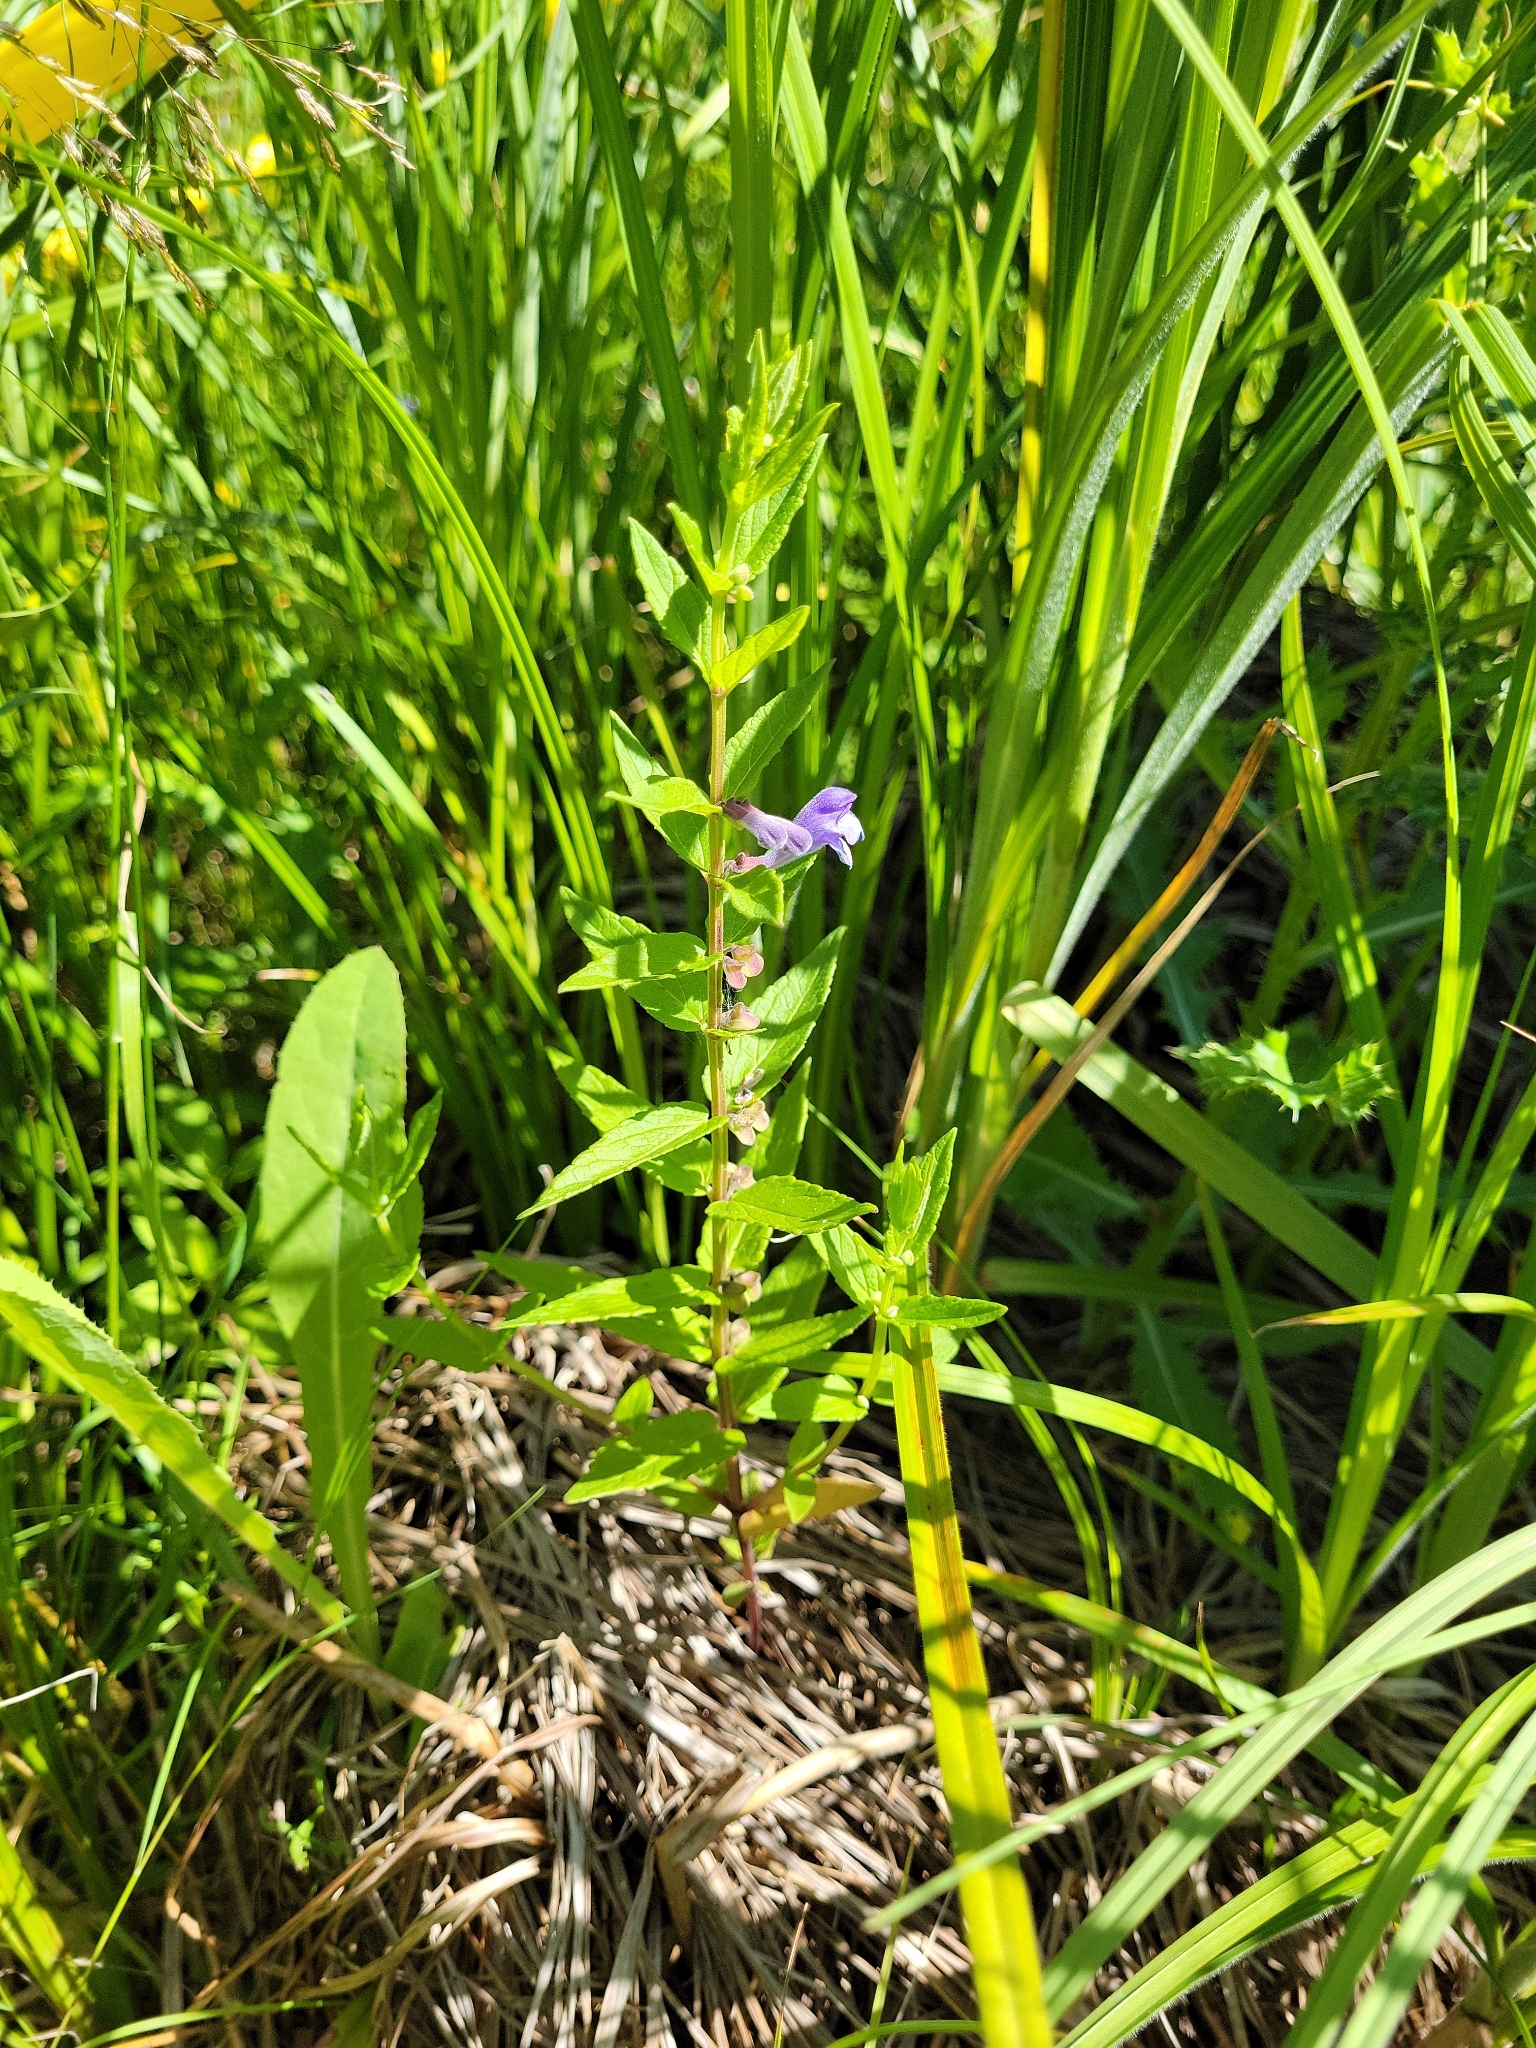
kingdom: Plantae
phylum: Tracheophyta
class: Magnoliopsida
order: Lamiales
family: Lamiaceae
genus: Scutellaria
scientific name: Scutellaria galericulata
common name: Skullcap
